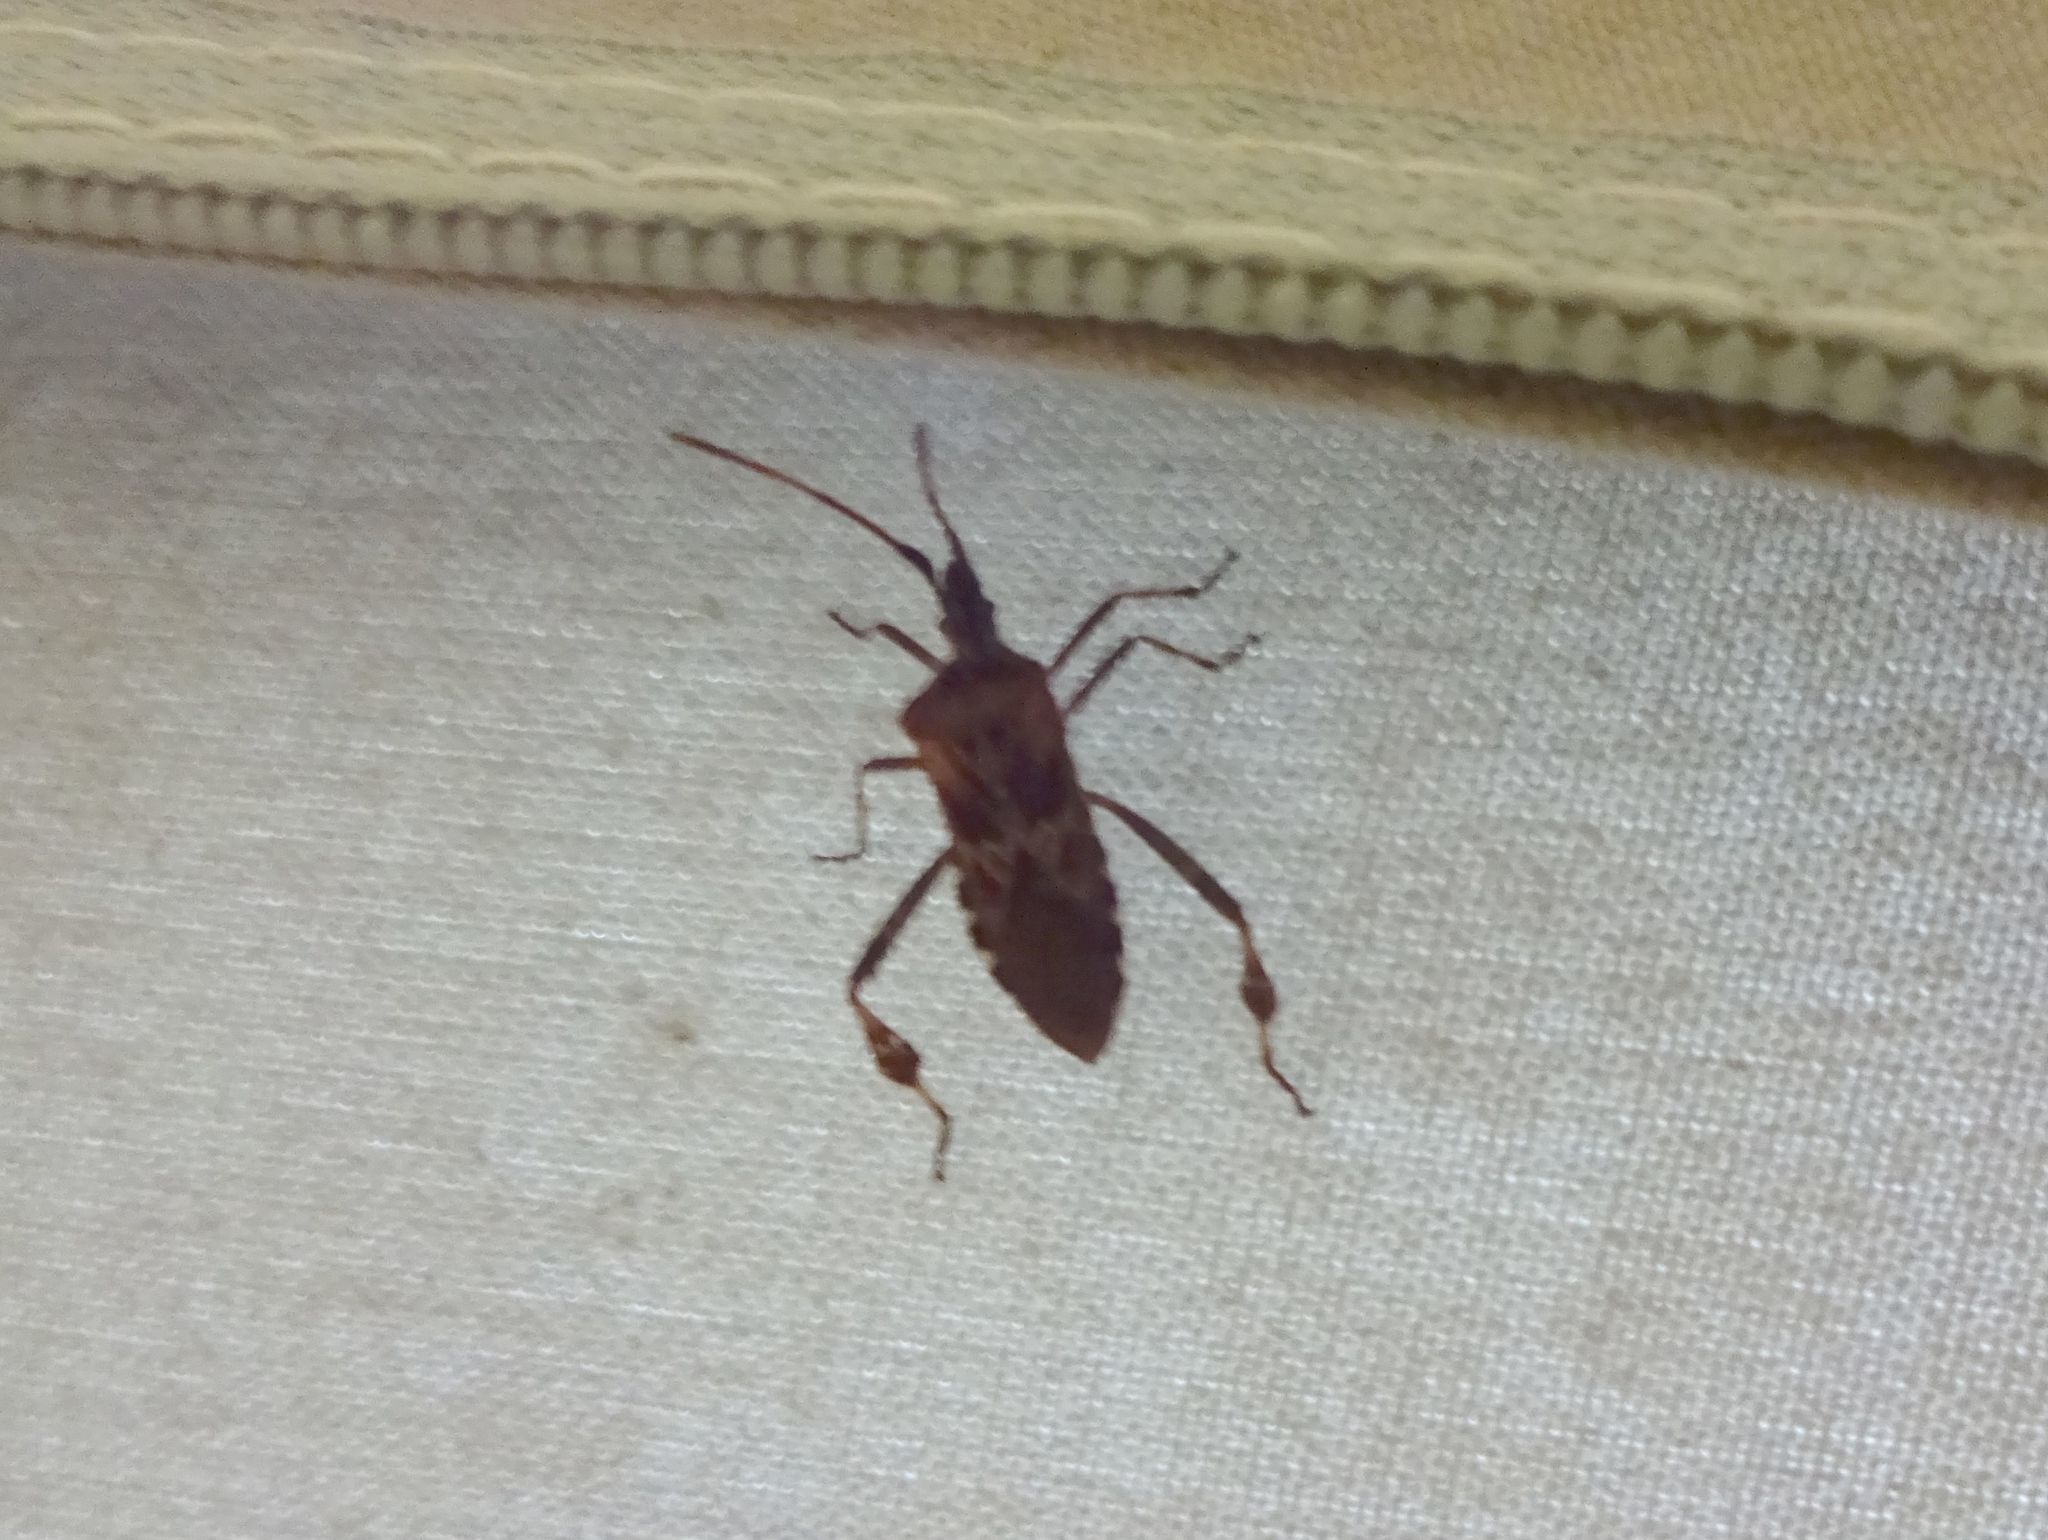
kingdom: Animalia
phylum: Arthropoda
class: Insecta
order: Hemiptera
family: Coreidae
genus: Leptoglossus
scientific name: Leptoglossus occidentalis
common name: Western conifer-seed bug
